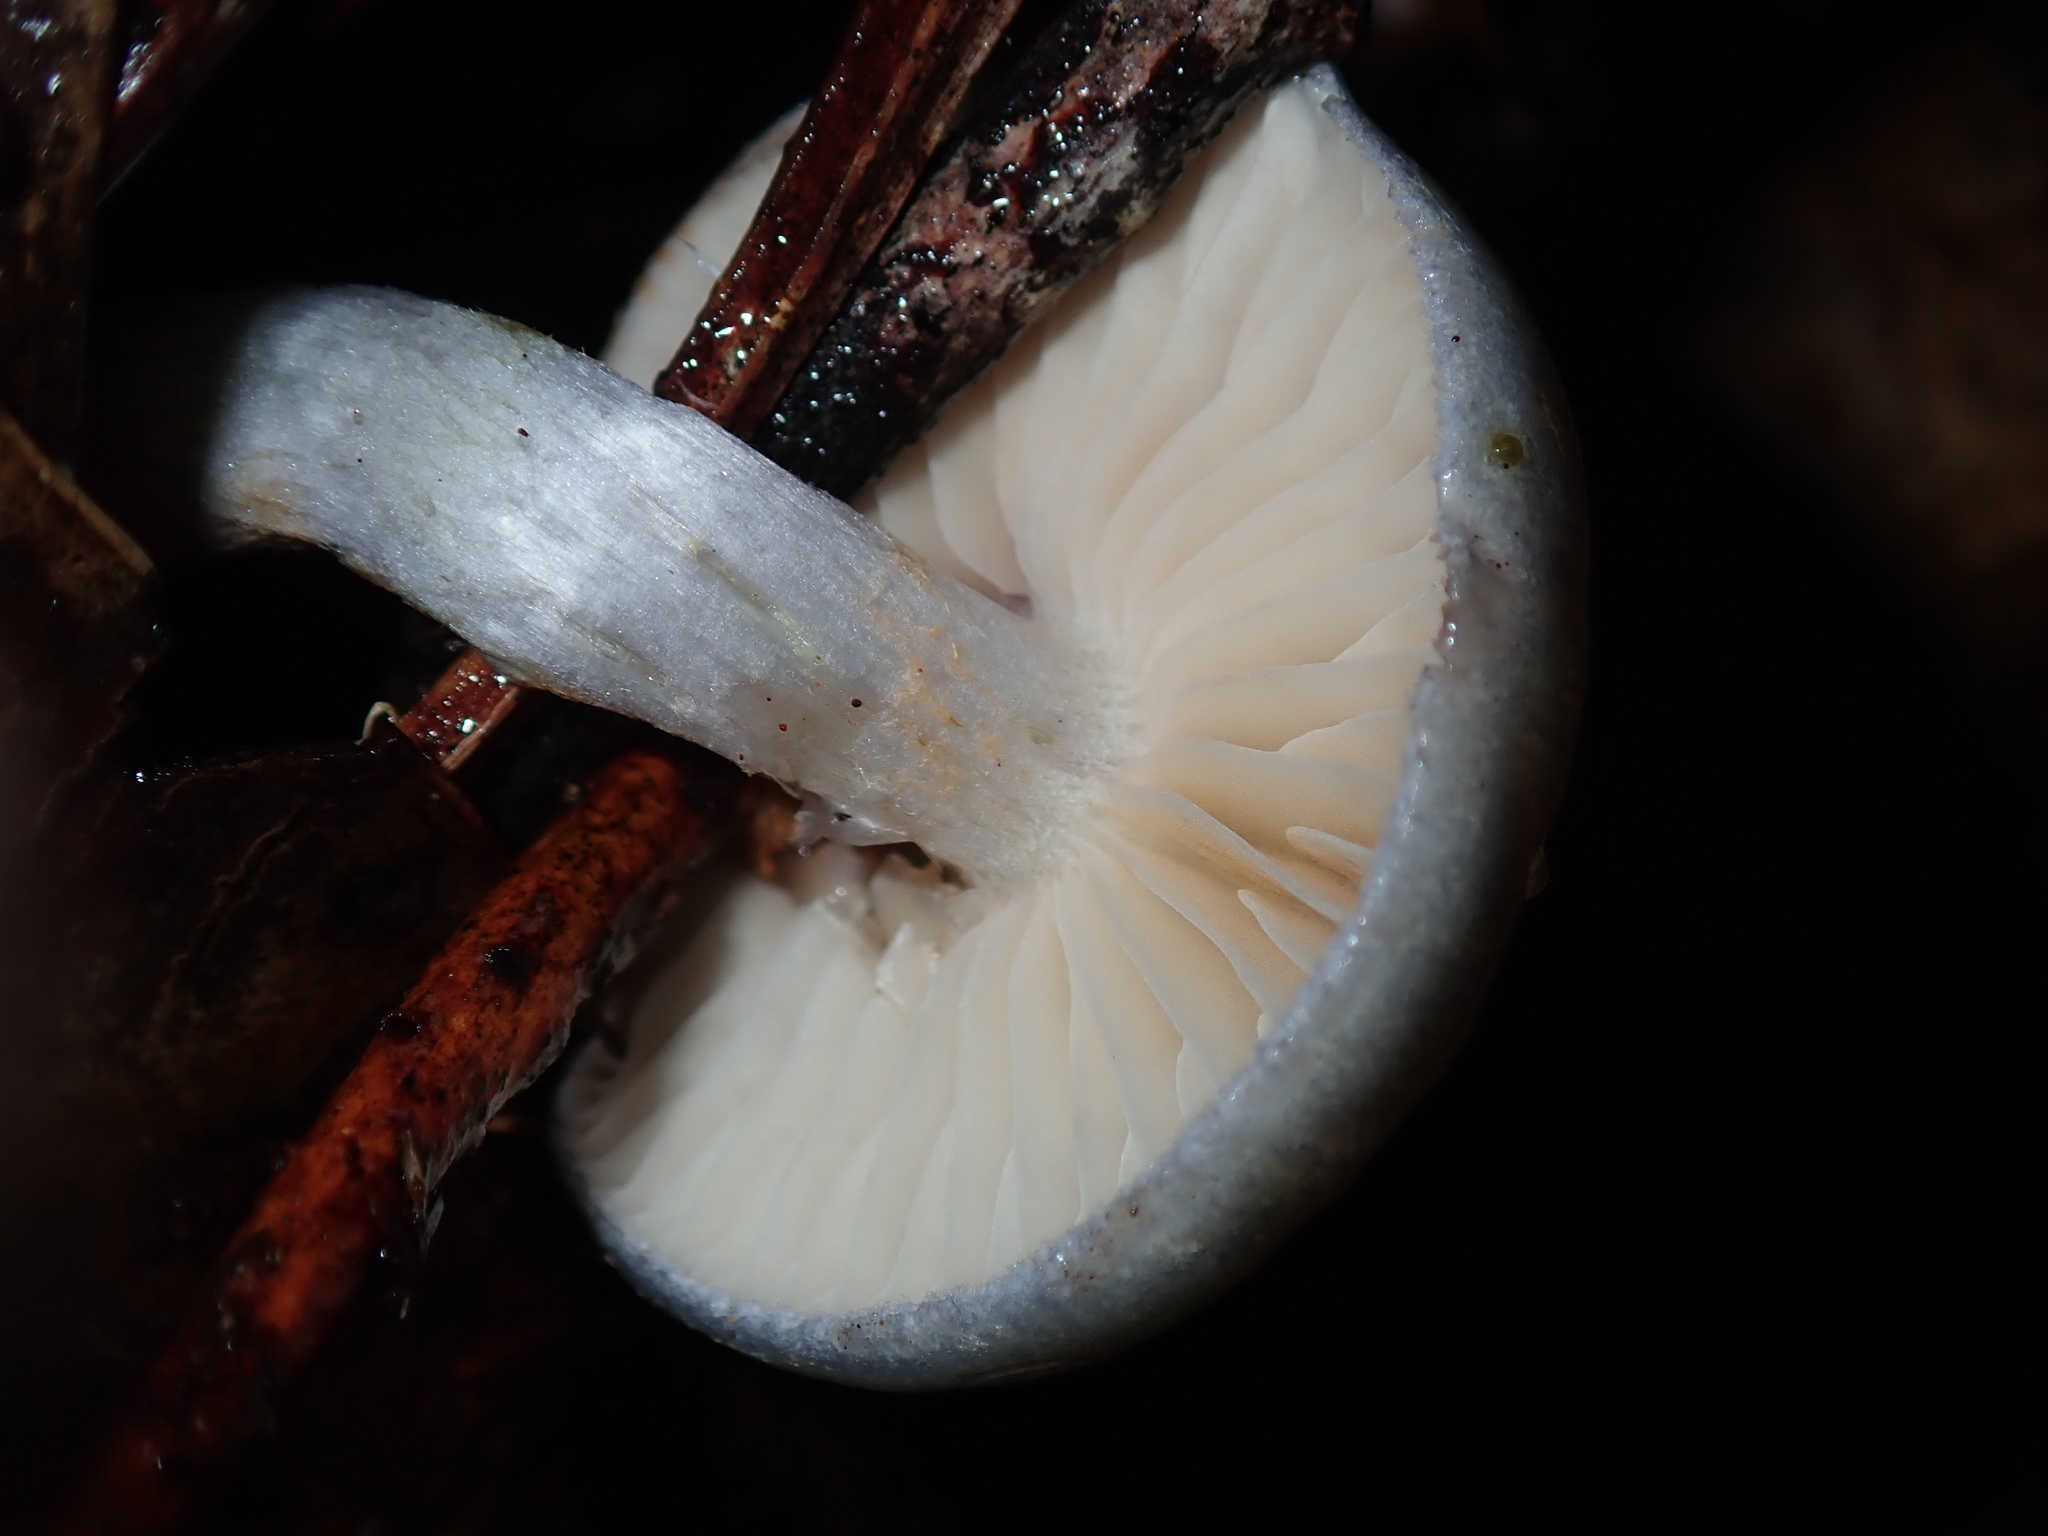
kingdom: Fungi
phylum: Basidiomycota
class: Agaricomycetes
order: Agaricales
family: Cortinariaceae
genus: Cortinarius
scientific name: Cortinarius rotundisporus
